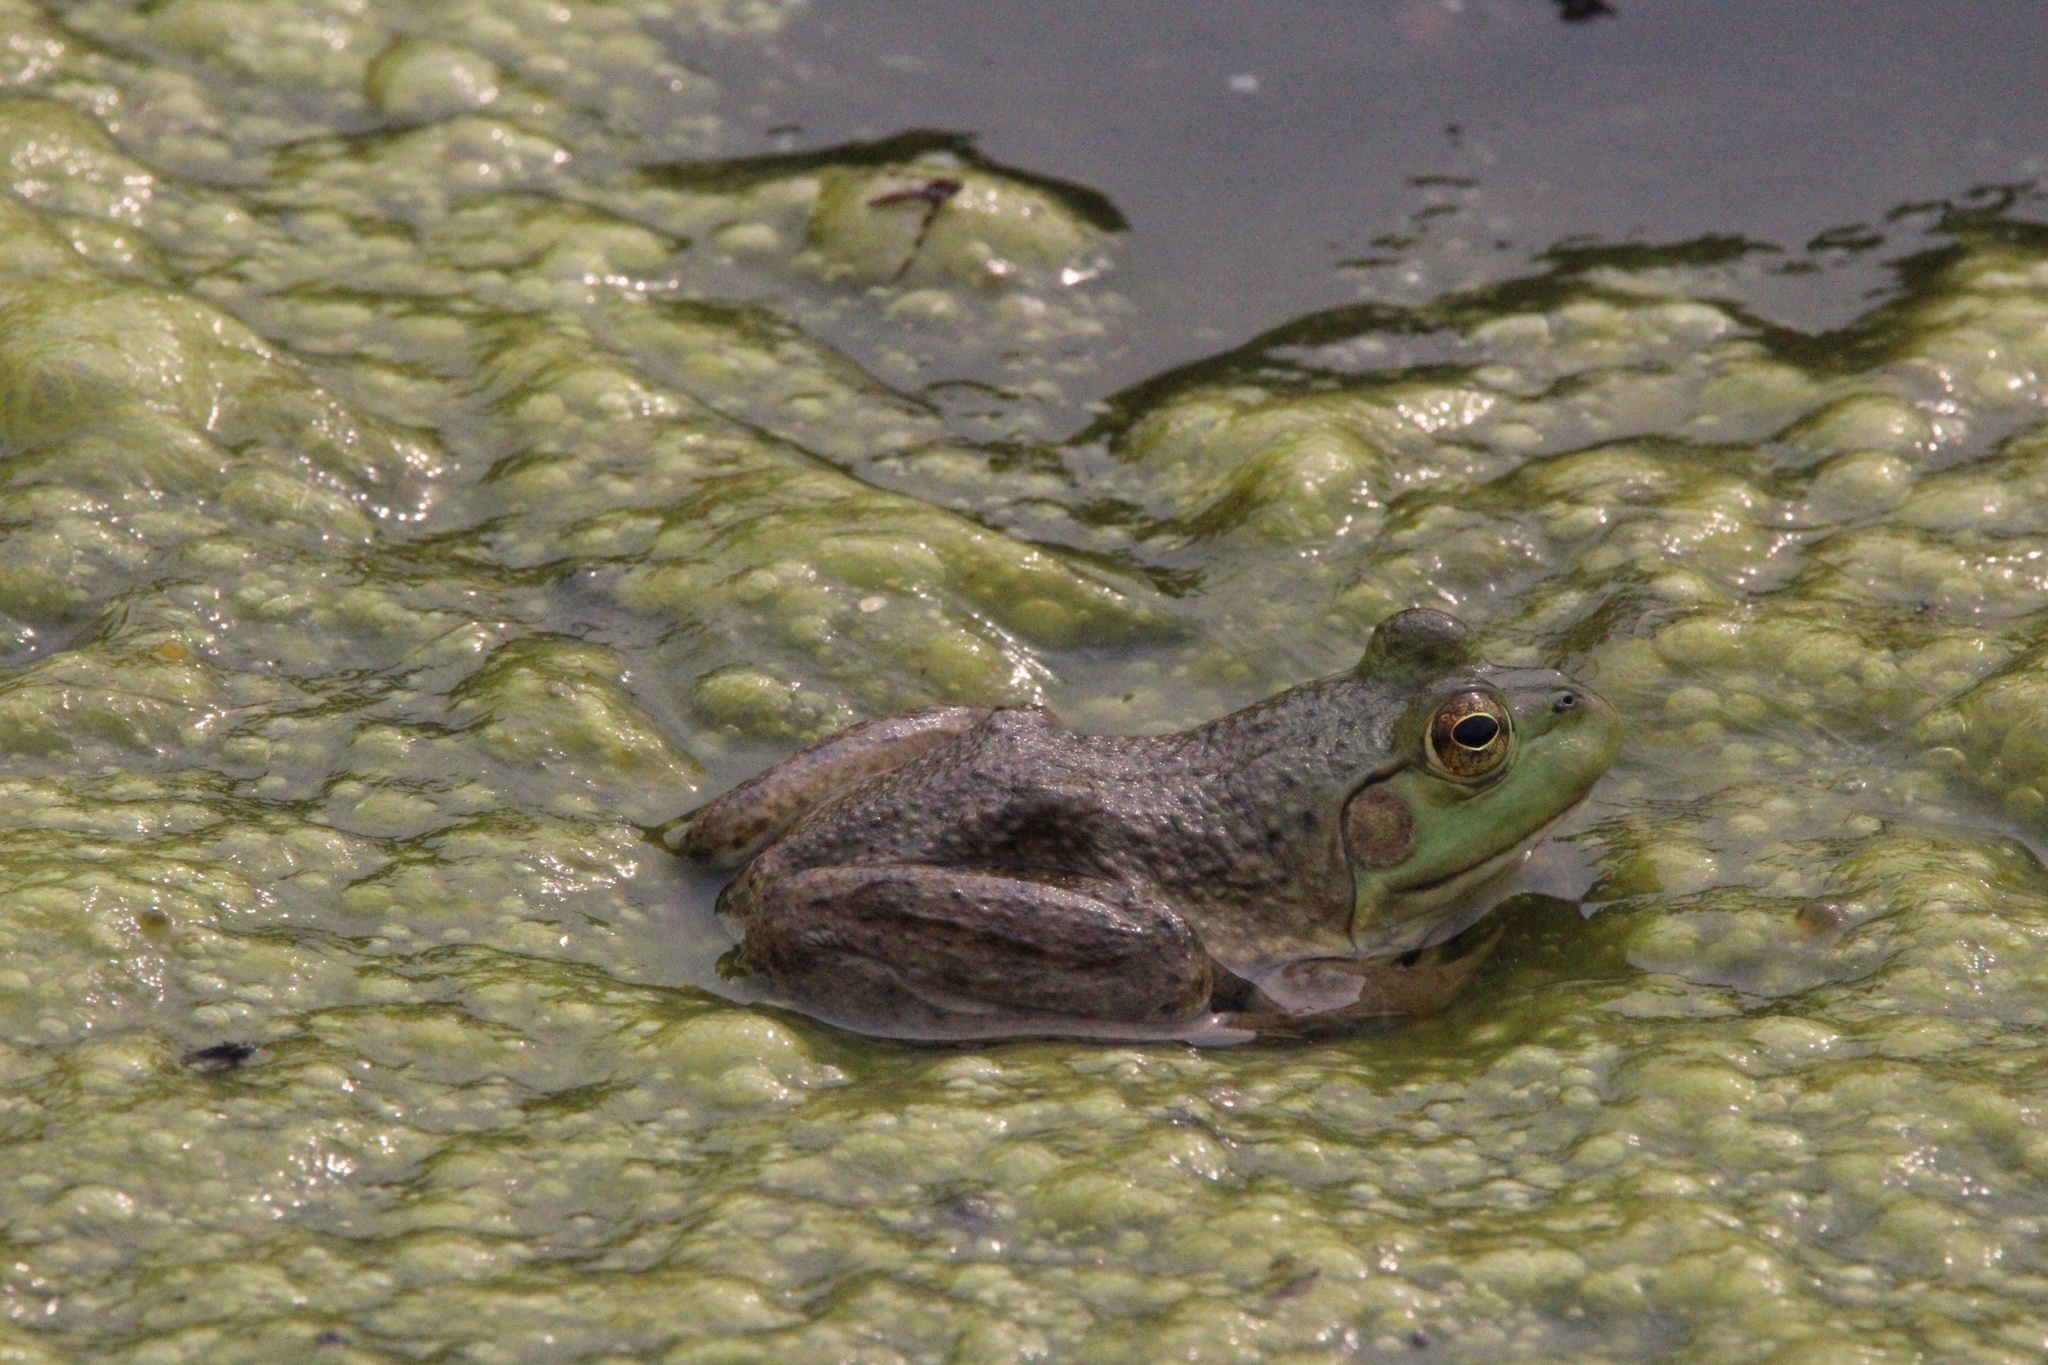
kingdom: Animalia
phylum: Chordata
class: Amphibia
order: Anura
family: Ranidae
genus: Lithobates
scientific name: Lithobates catesbeianus
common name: American bullfrog
